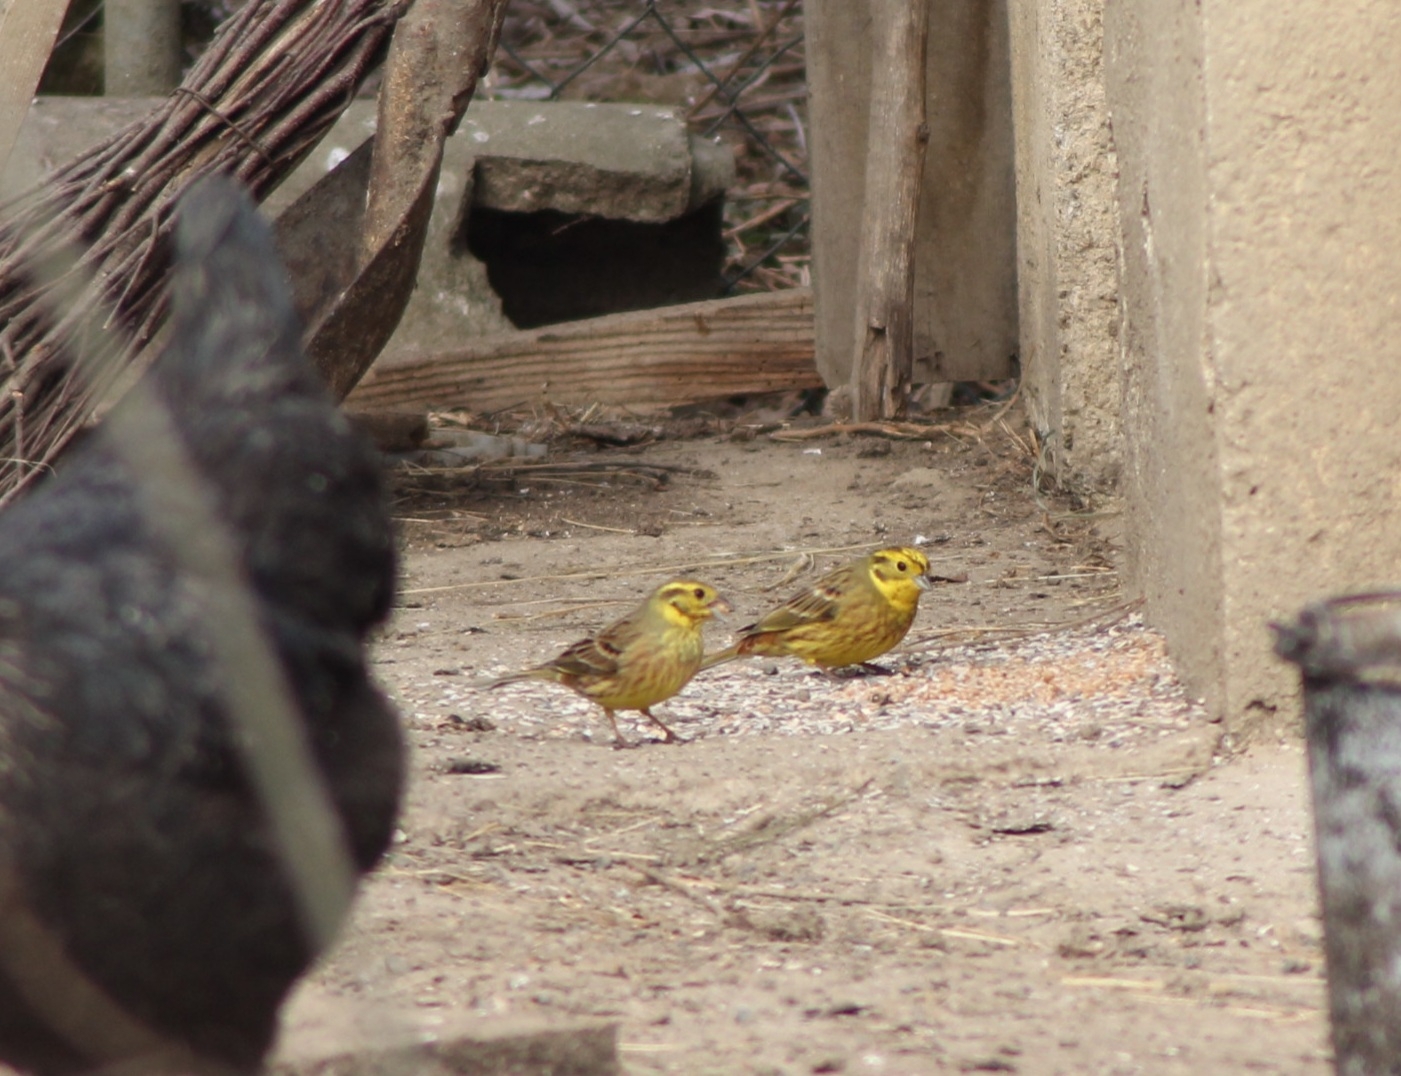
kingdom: Animalia
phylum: Chordata
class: Aves
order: Passeriformes
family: Emberizidae
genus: Emberiza
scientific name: Emberiza citrinella
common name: Yellowhammer
